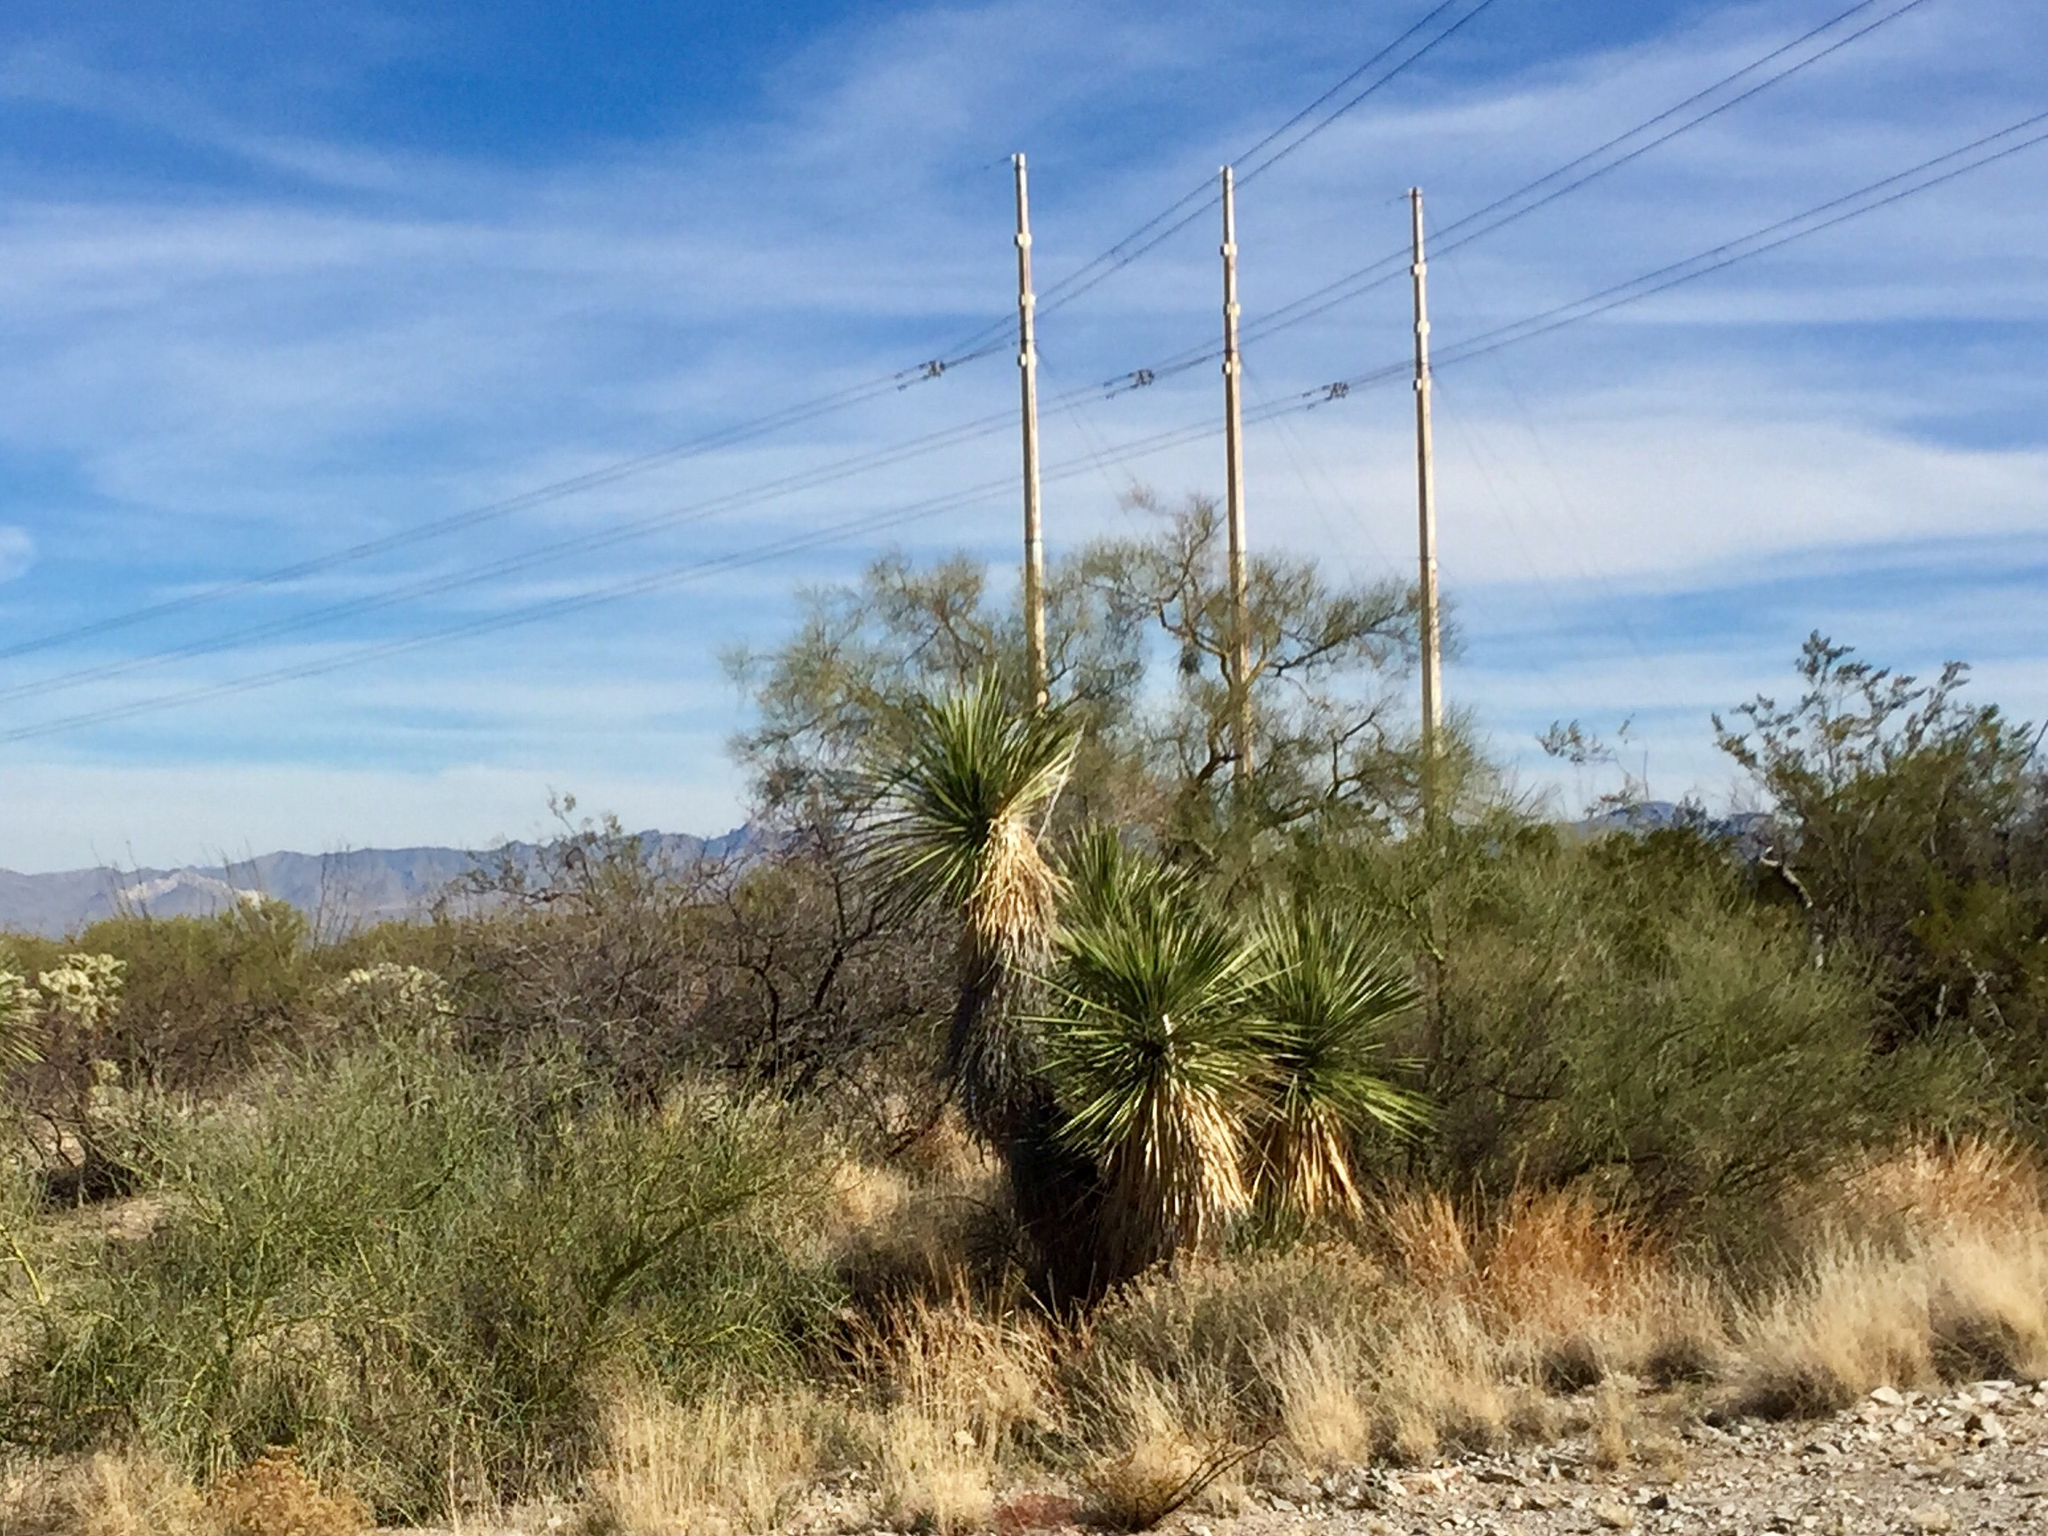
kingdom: Plantae
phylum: Tracheophyta
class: Liliopsida
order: Asparagales
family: Asparagaceae
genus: Yucca
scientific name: Yucca elata
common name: Palmella
